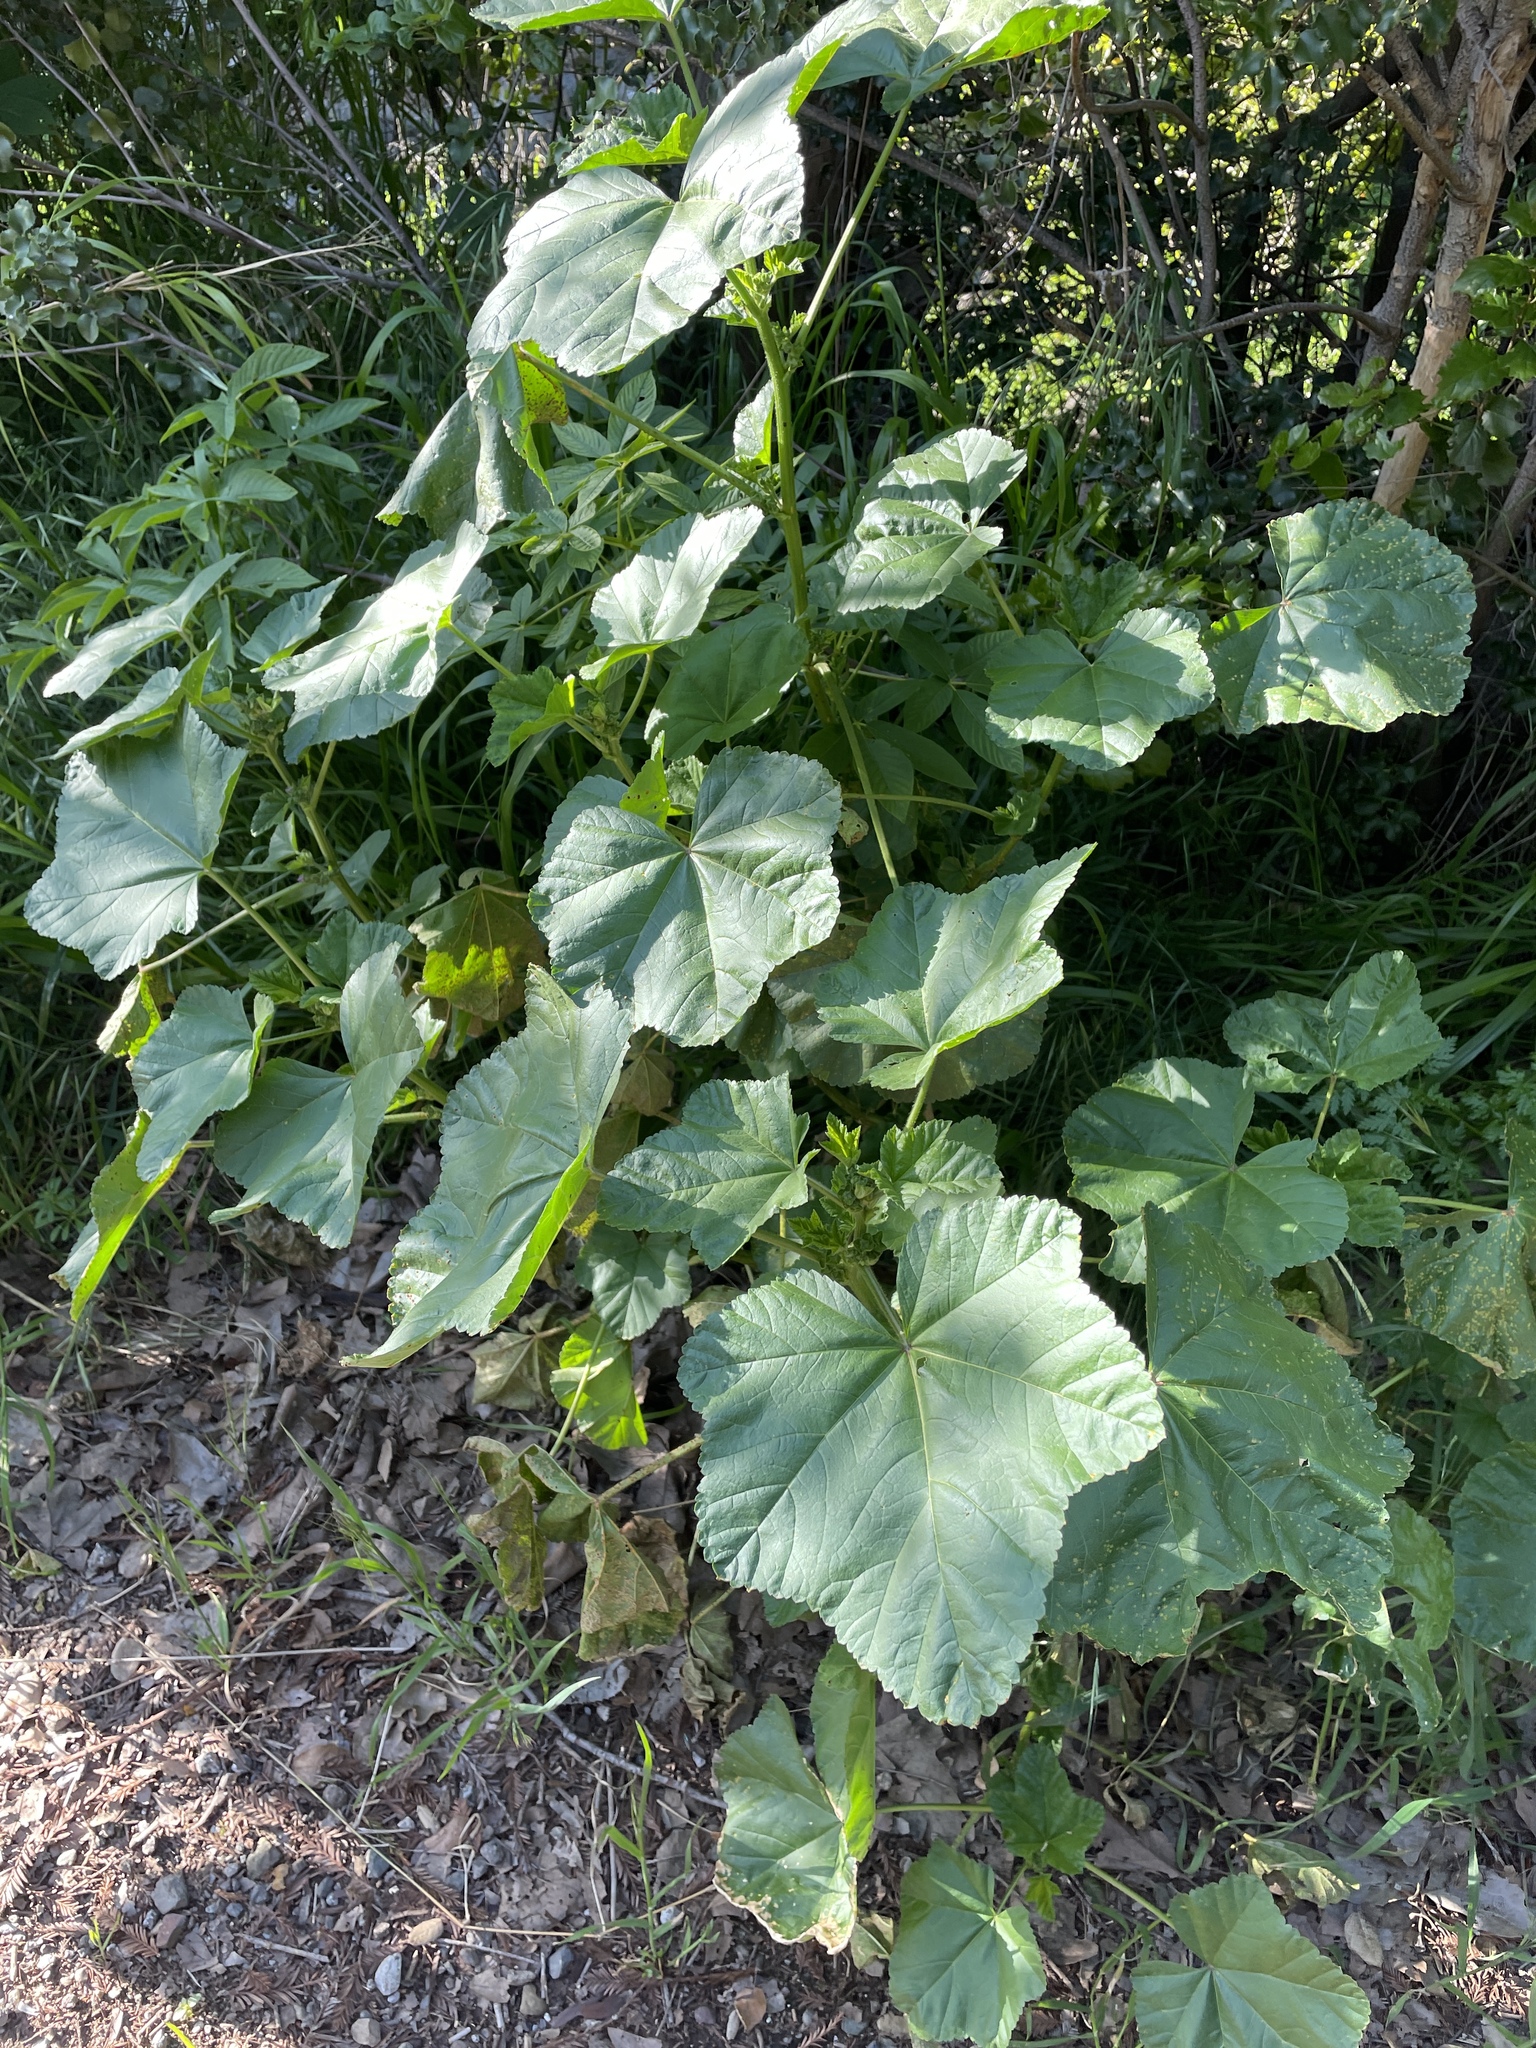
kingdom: Plantae
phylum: Tracheophyta
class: Magnoliopsida
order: Malvales
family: Malvaceae
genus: Malva
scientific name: Malva
